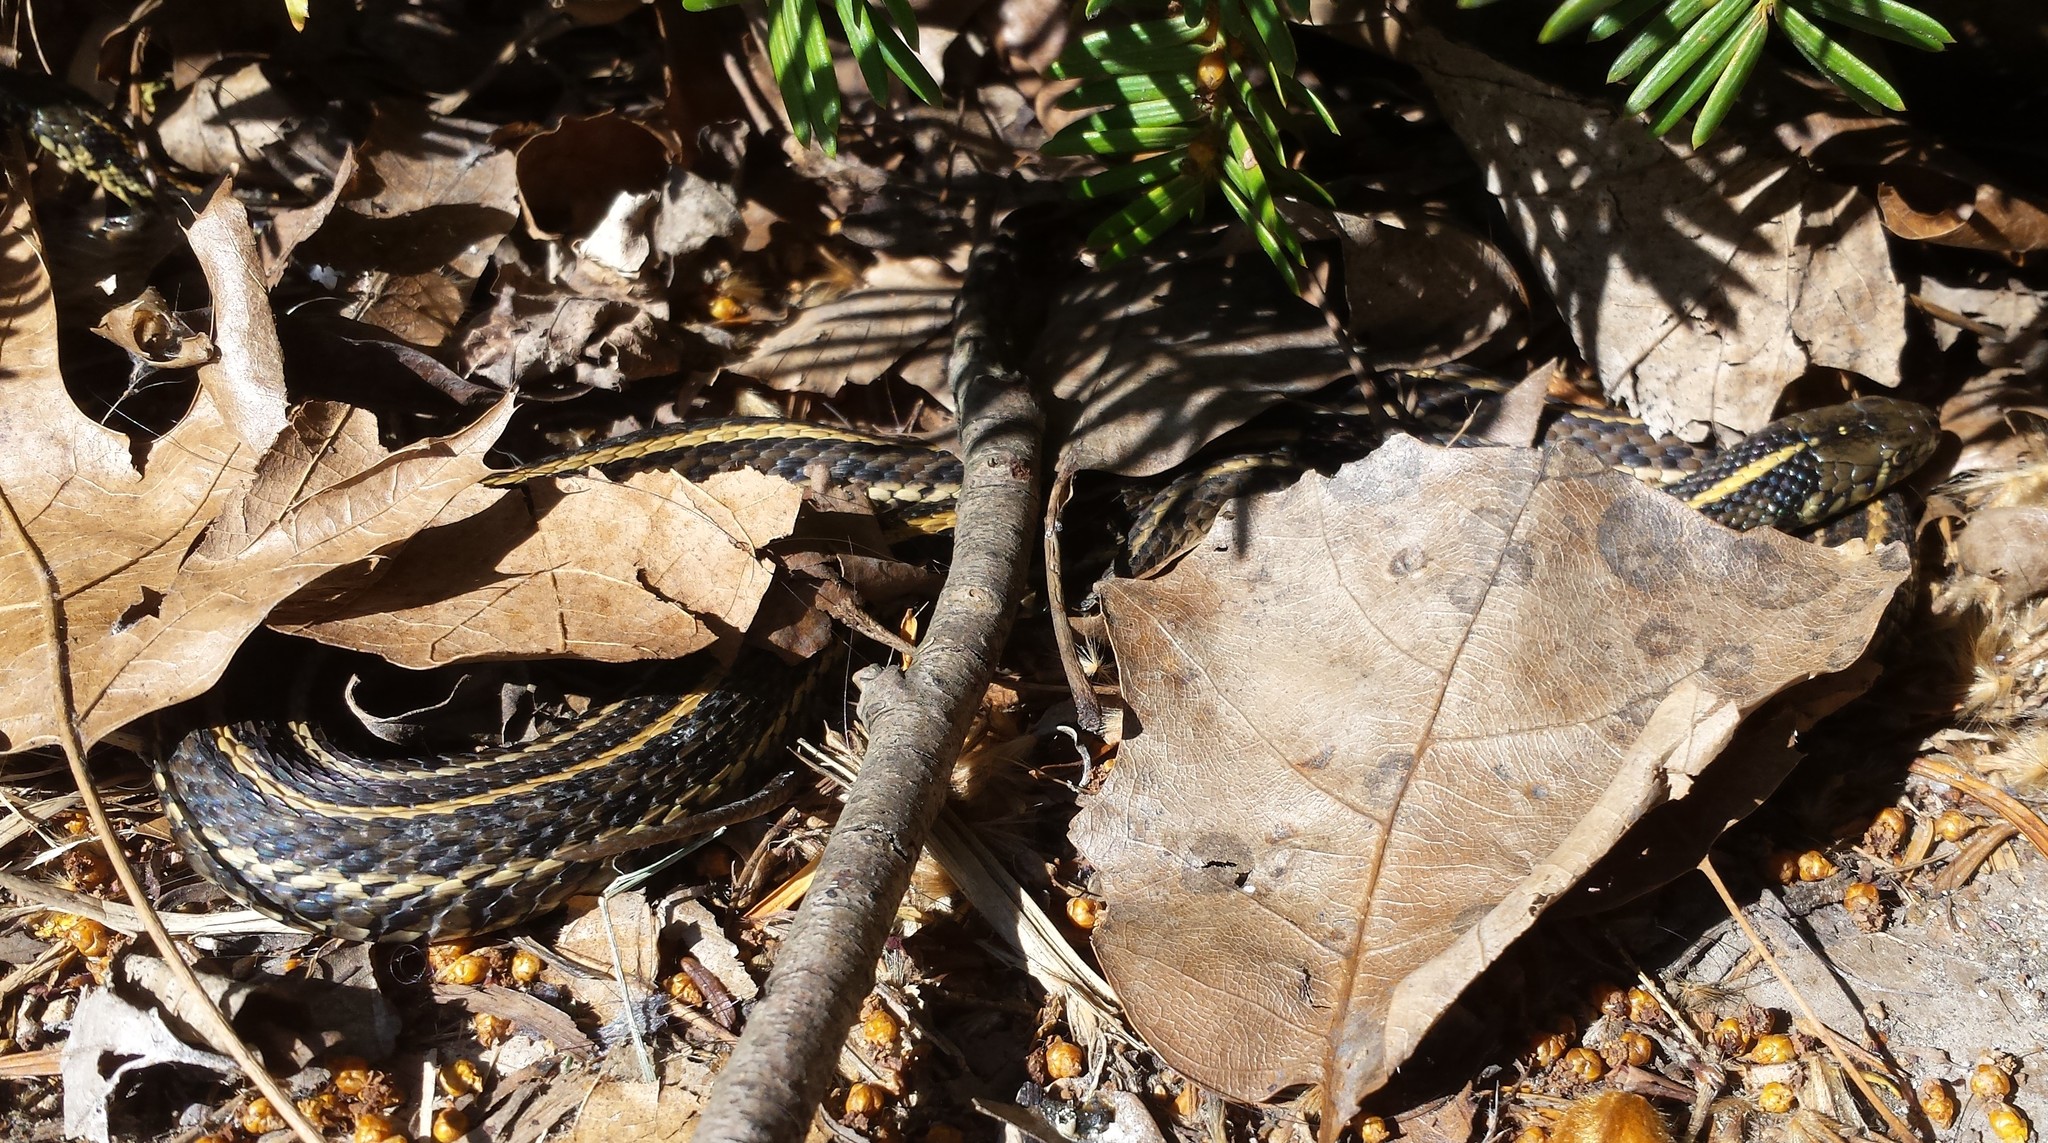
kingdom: Animalia
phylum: Chordata
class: Squamata
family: Colubridae
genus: Thamnophis
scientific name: Thamnophis radix
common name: Plains garter snake
